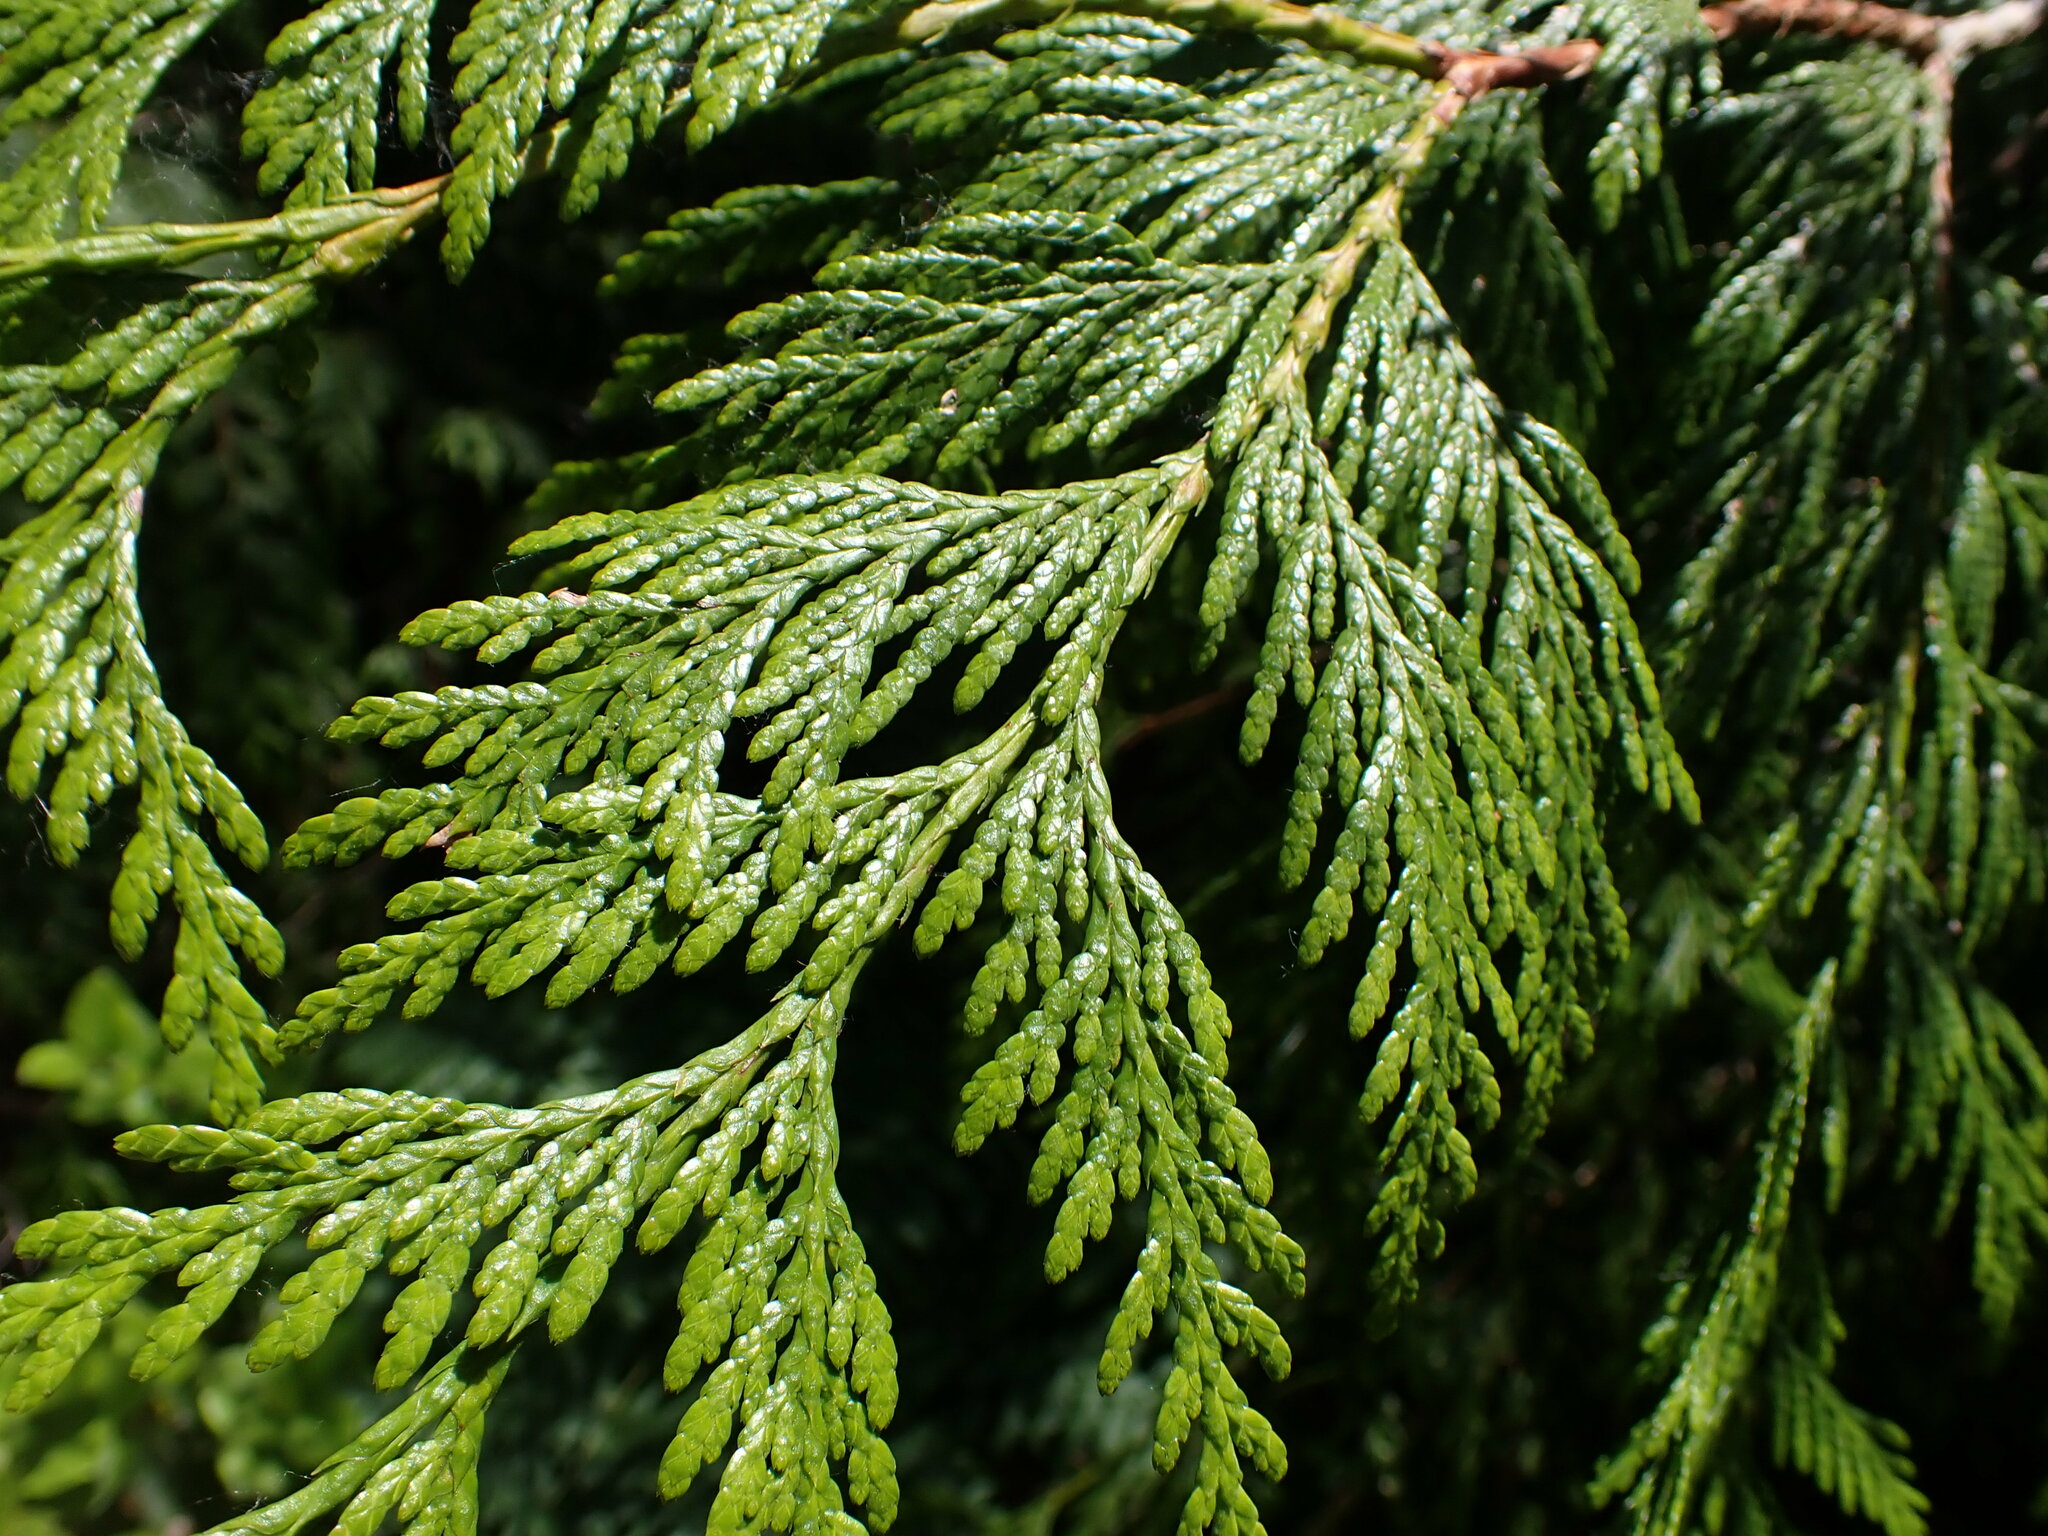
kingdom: Plantae
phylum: Tracheophyta
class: Pinopsida
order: Pinales
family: Cupressaceae
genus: Thuja
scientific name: Thuja plicata
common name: Western red-cedar
